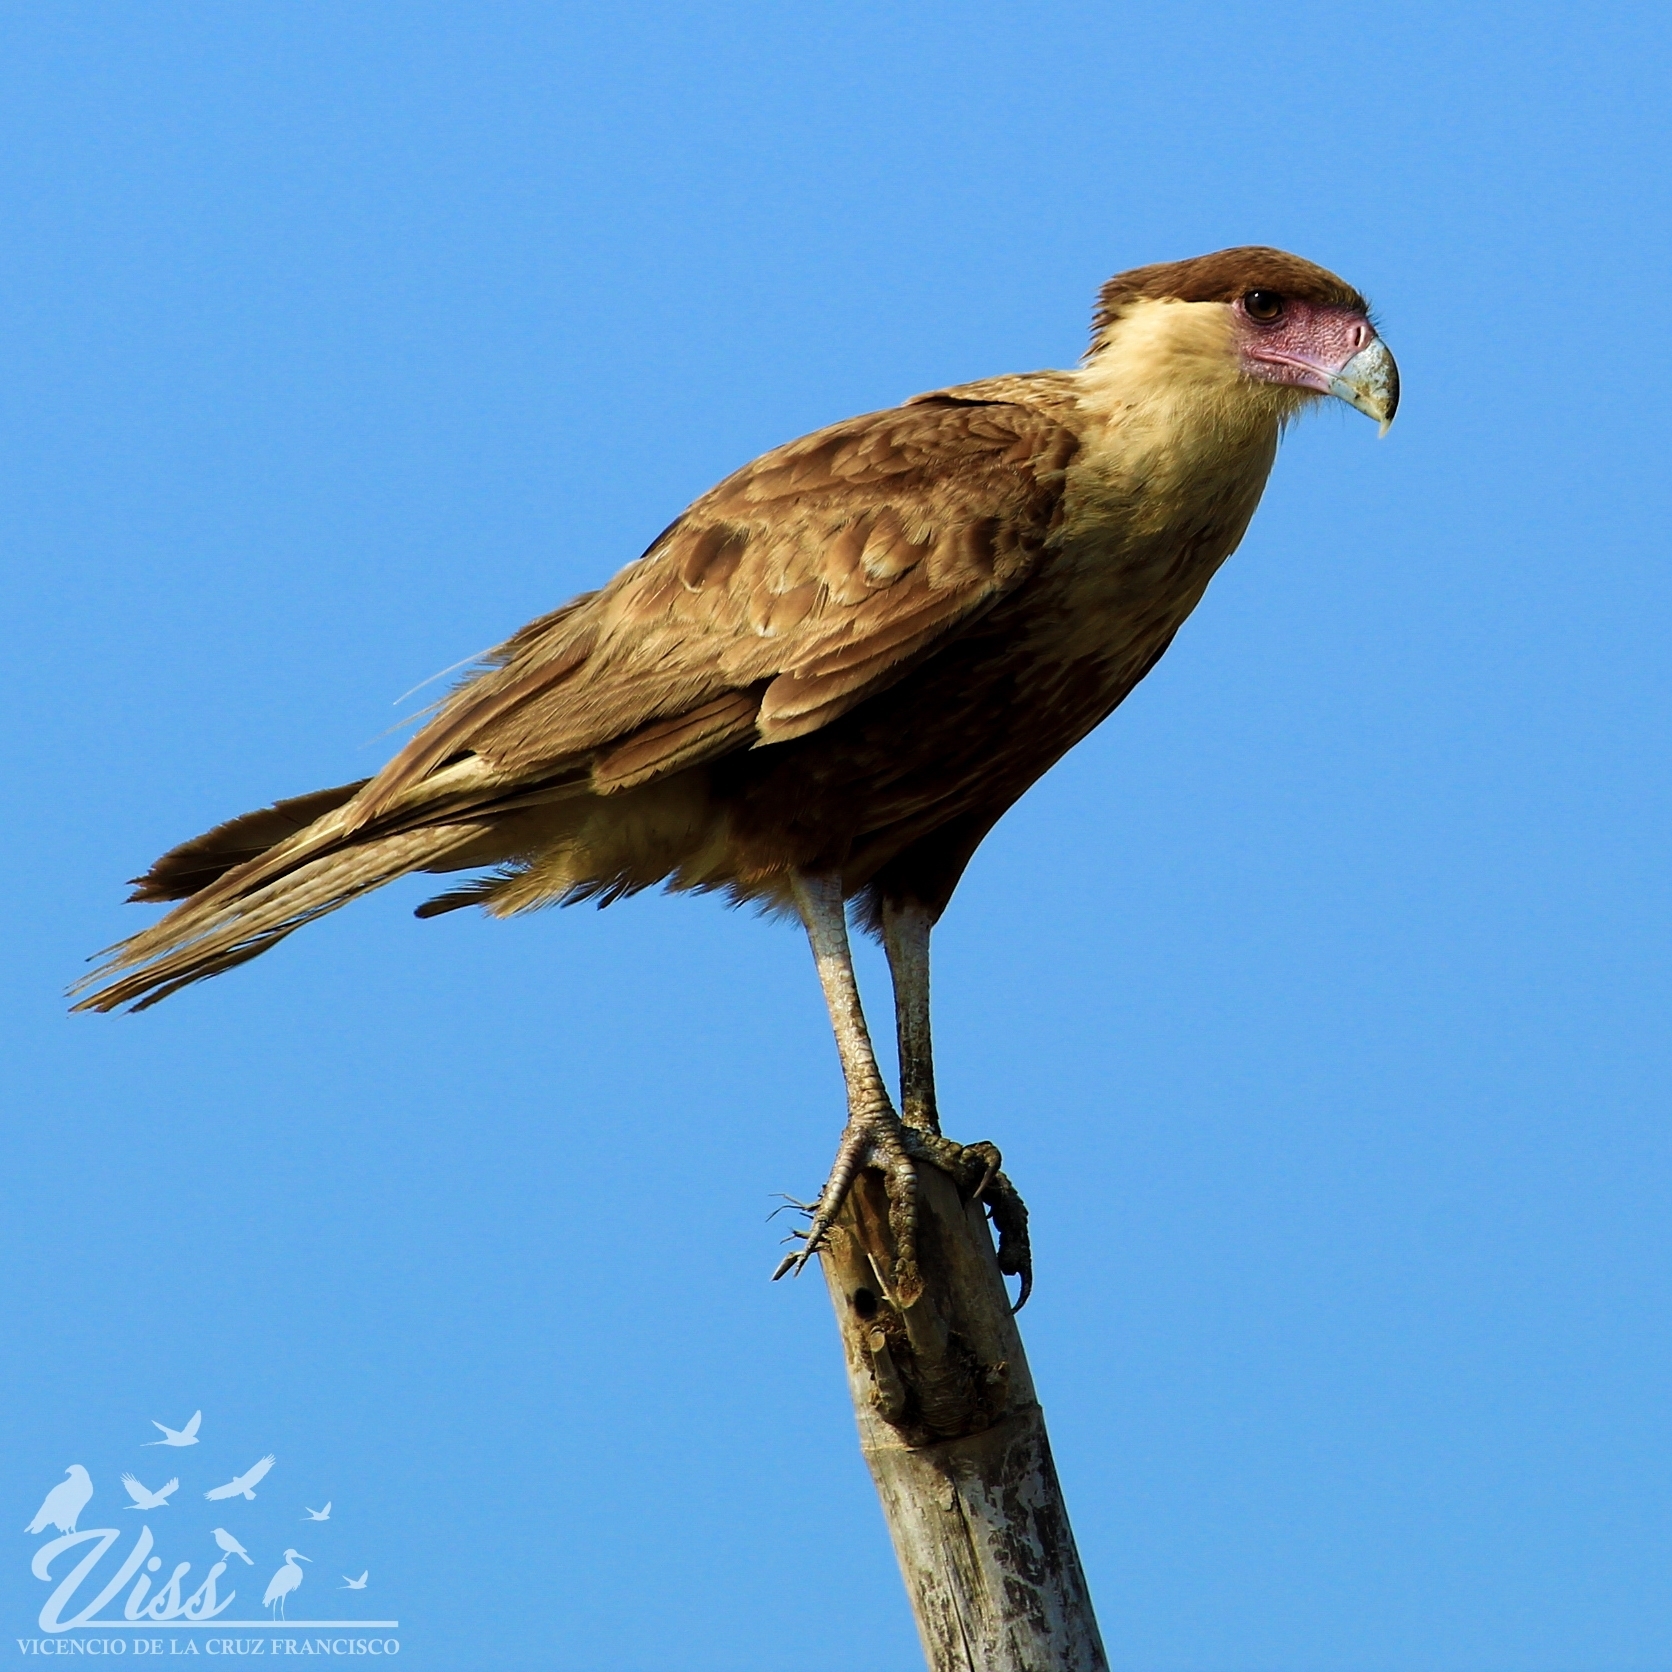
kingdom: Animalia
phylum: Chordata
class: Aves
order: Falconiformes
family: Falconidae
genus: Caracara
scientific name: Caracara plancus
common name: Southern caracara
